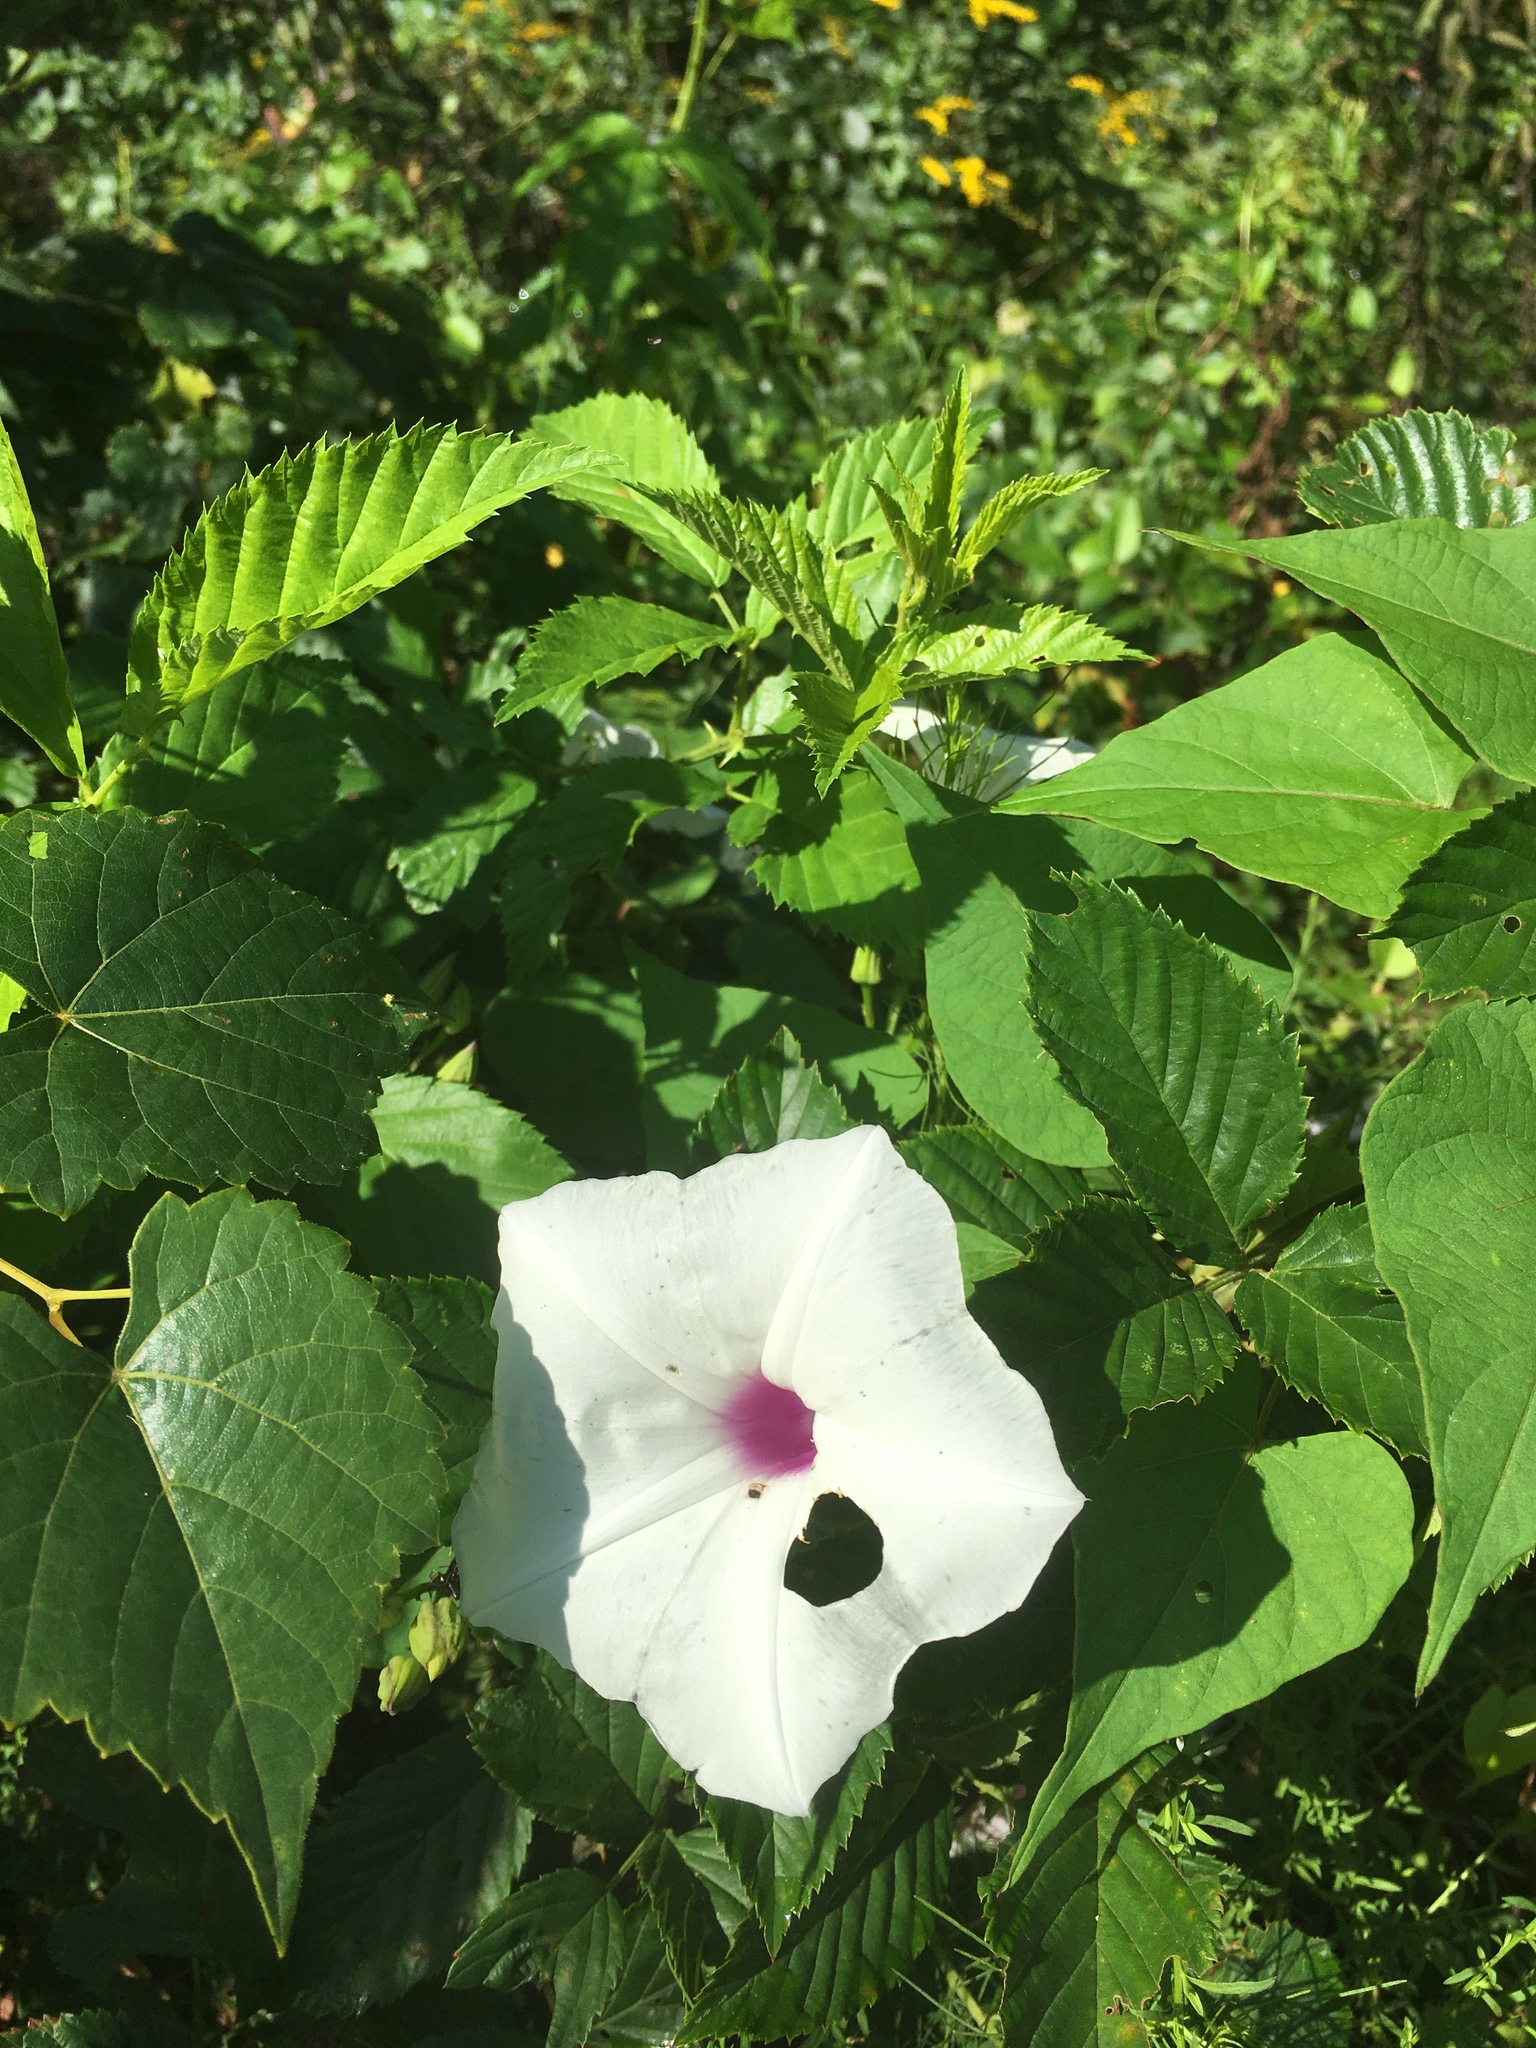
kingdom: Plantae
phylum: Tracheophyta
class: Magnoliopsida
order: Solanales
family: Convolvulaceae
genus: Ipomoea
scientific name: Ipomoea pandurata
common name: Man-of-the-earth
